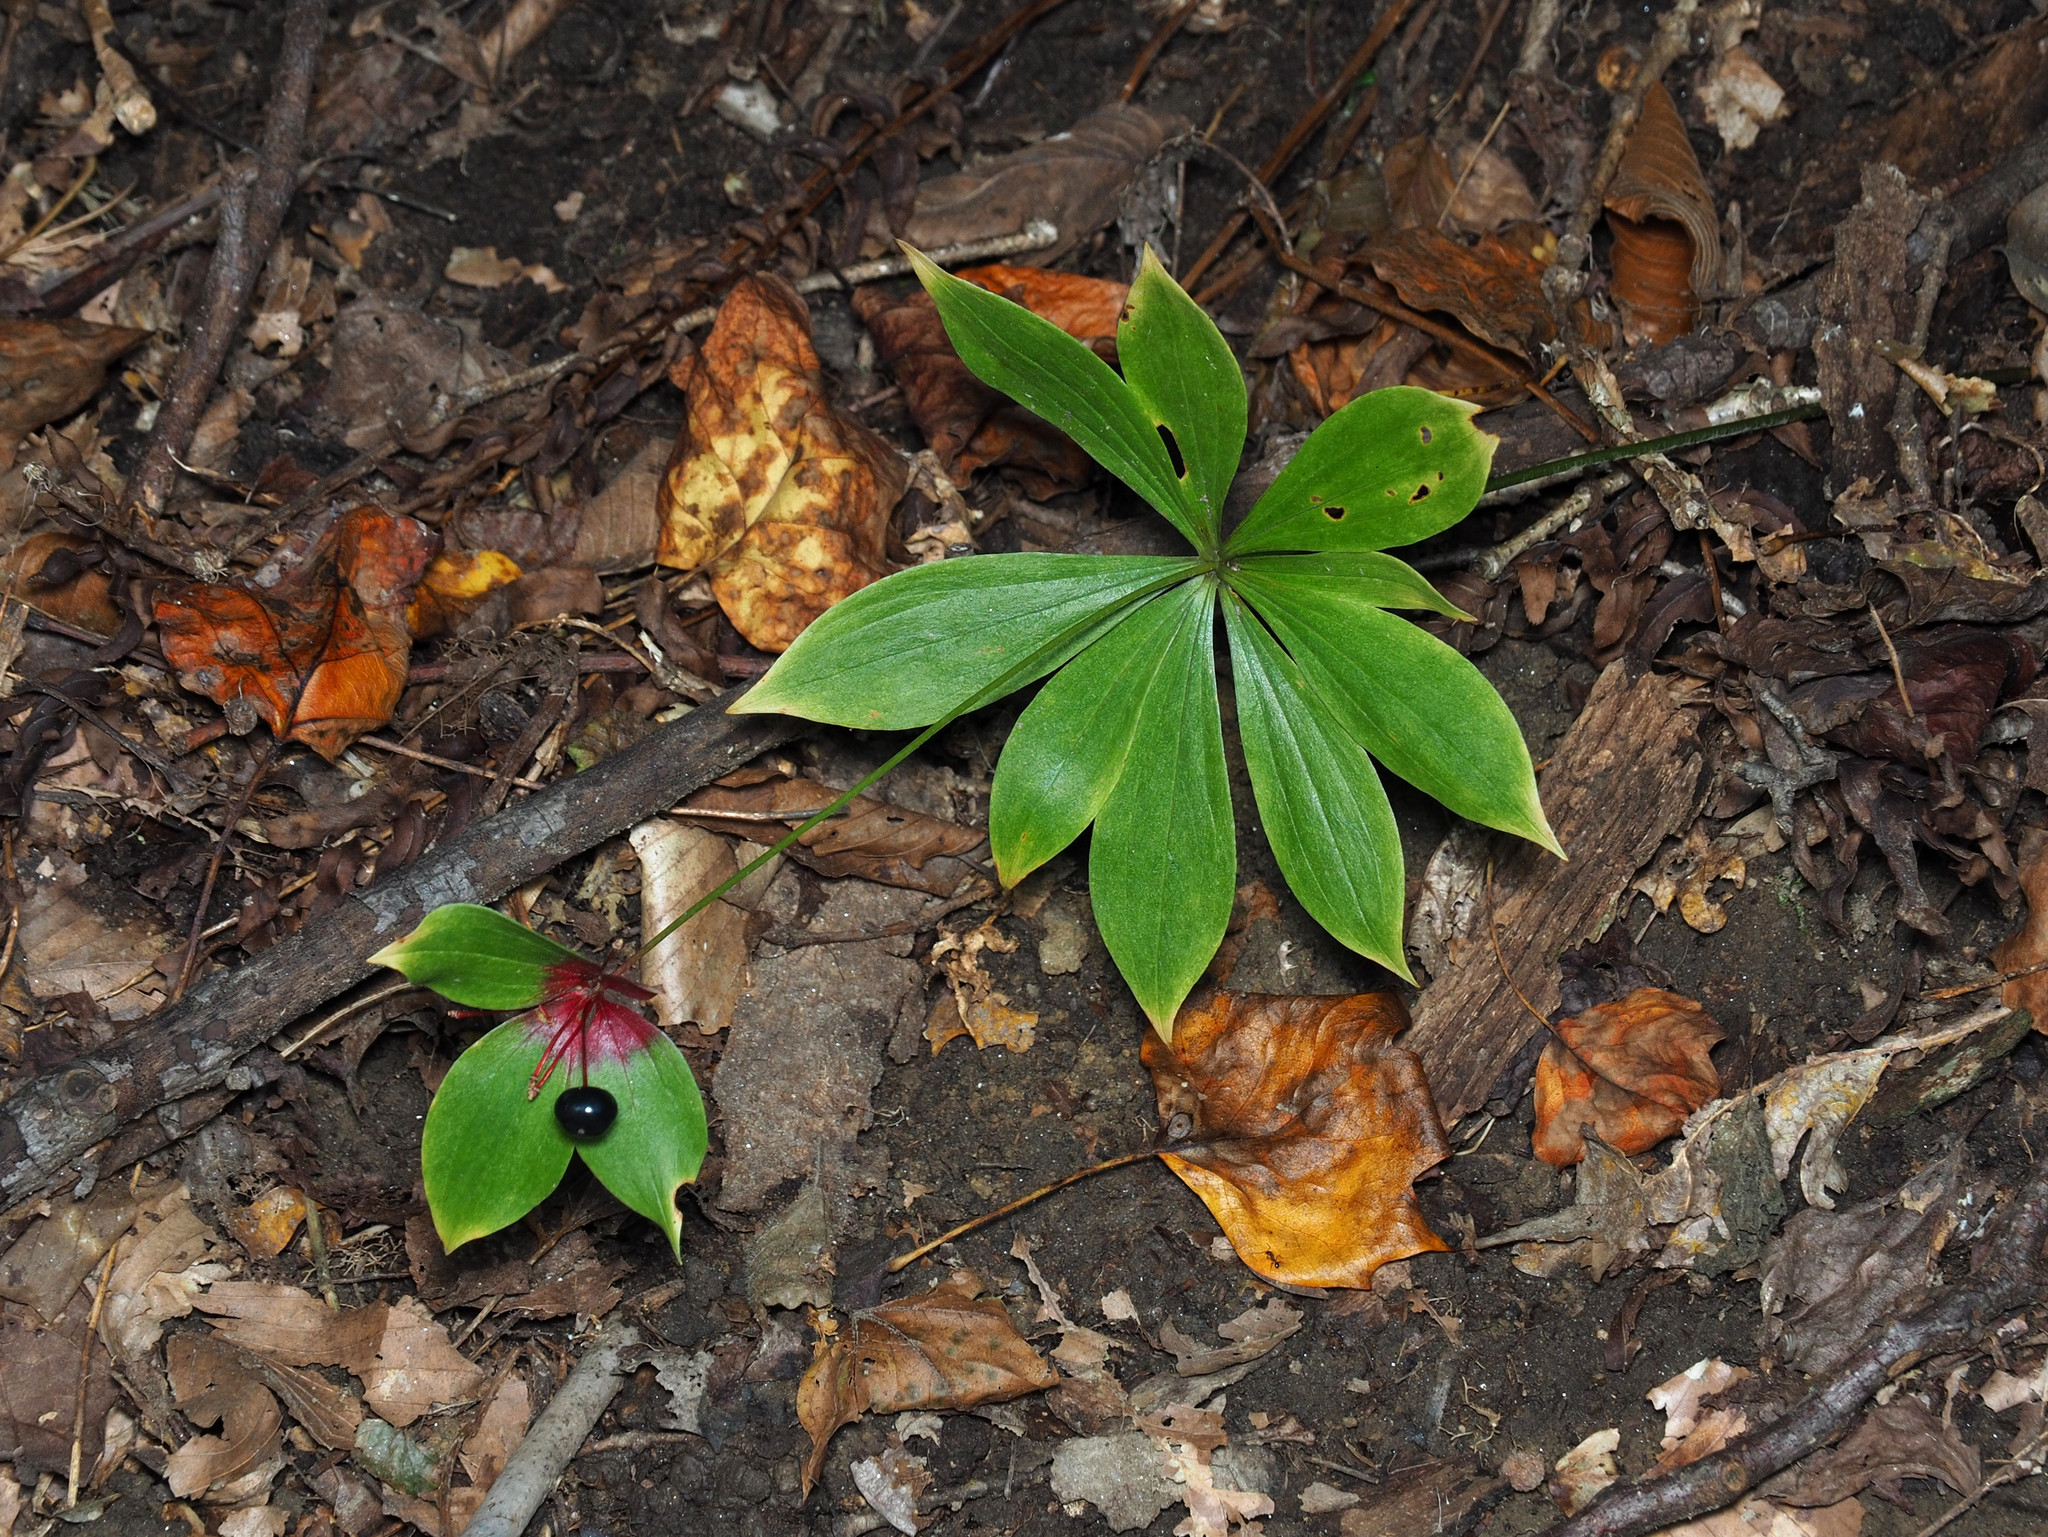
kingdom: Plantae
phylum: Tracheophyta
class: Liliopsida
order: Liliales
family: Liliaceae
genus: Medeola
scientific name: Medeola virginiana
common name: Indian cucumber-root
